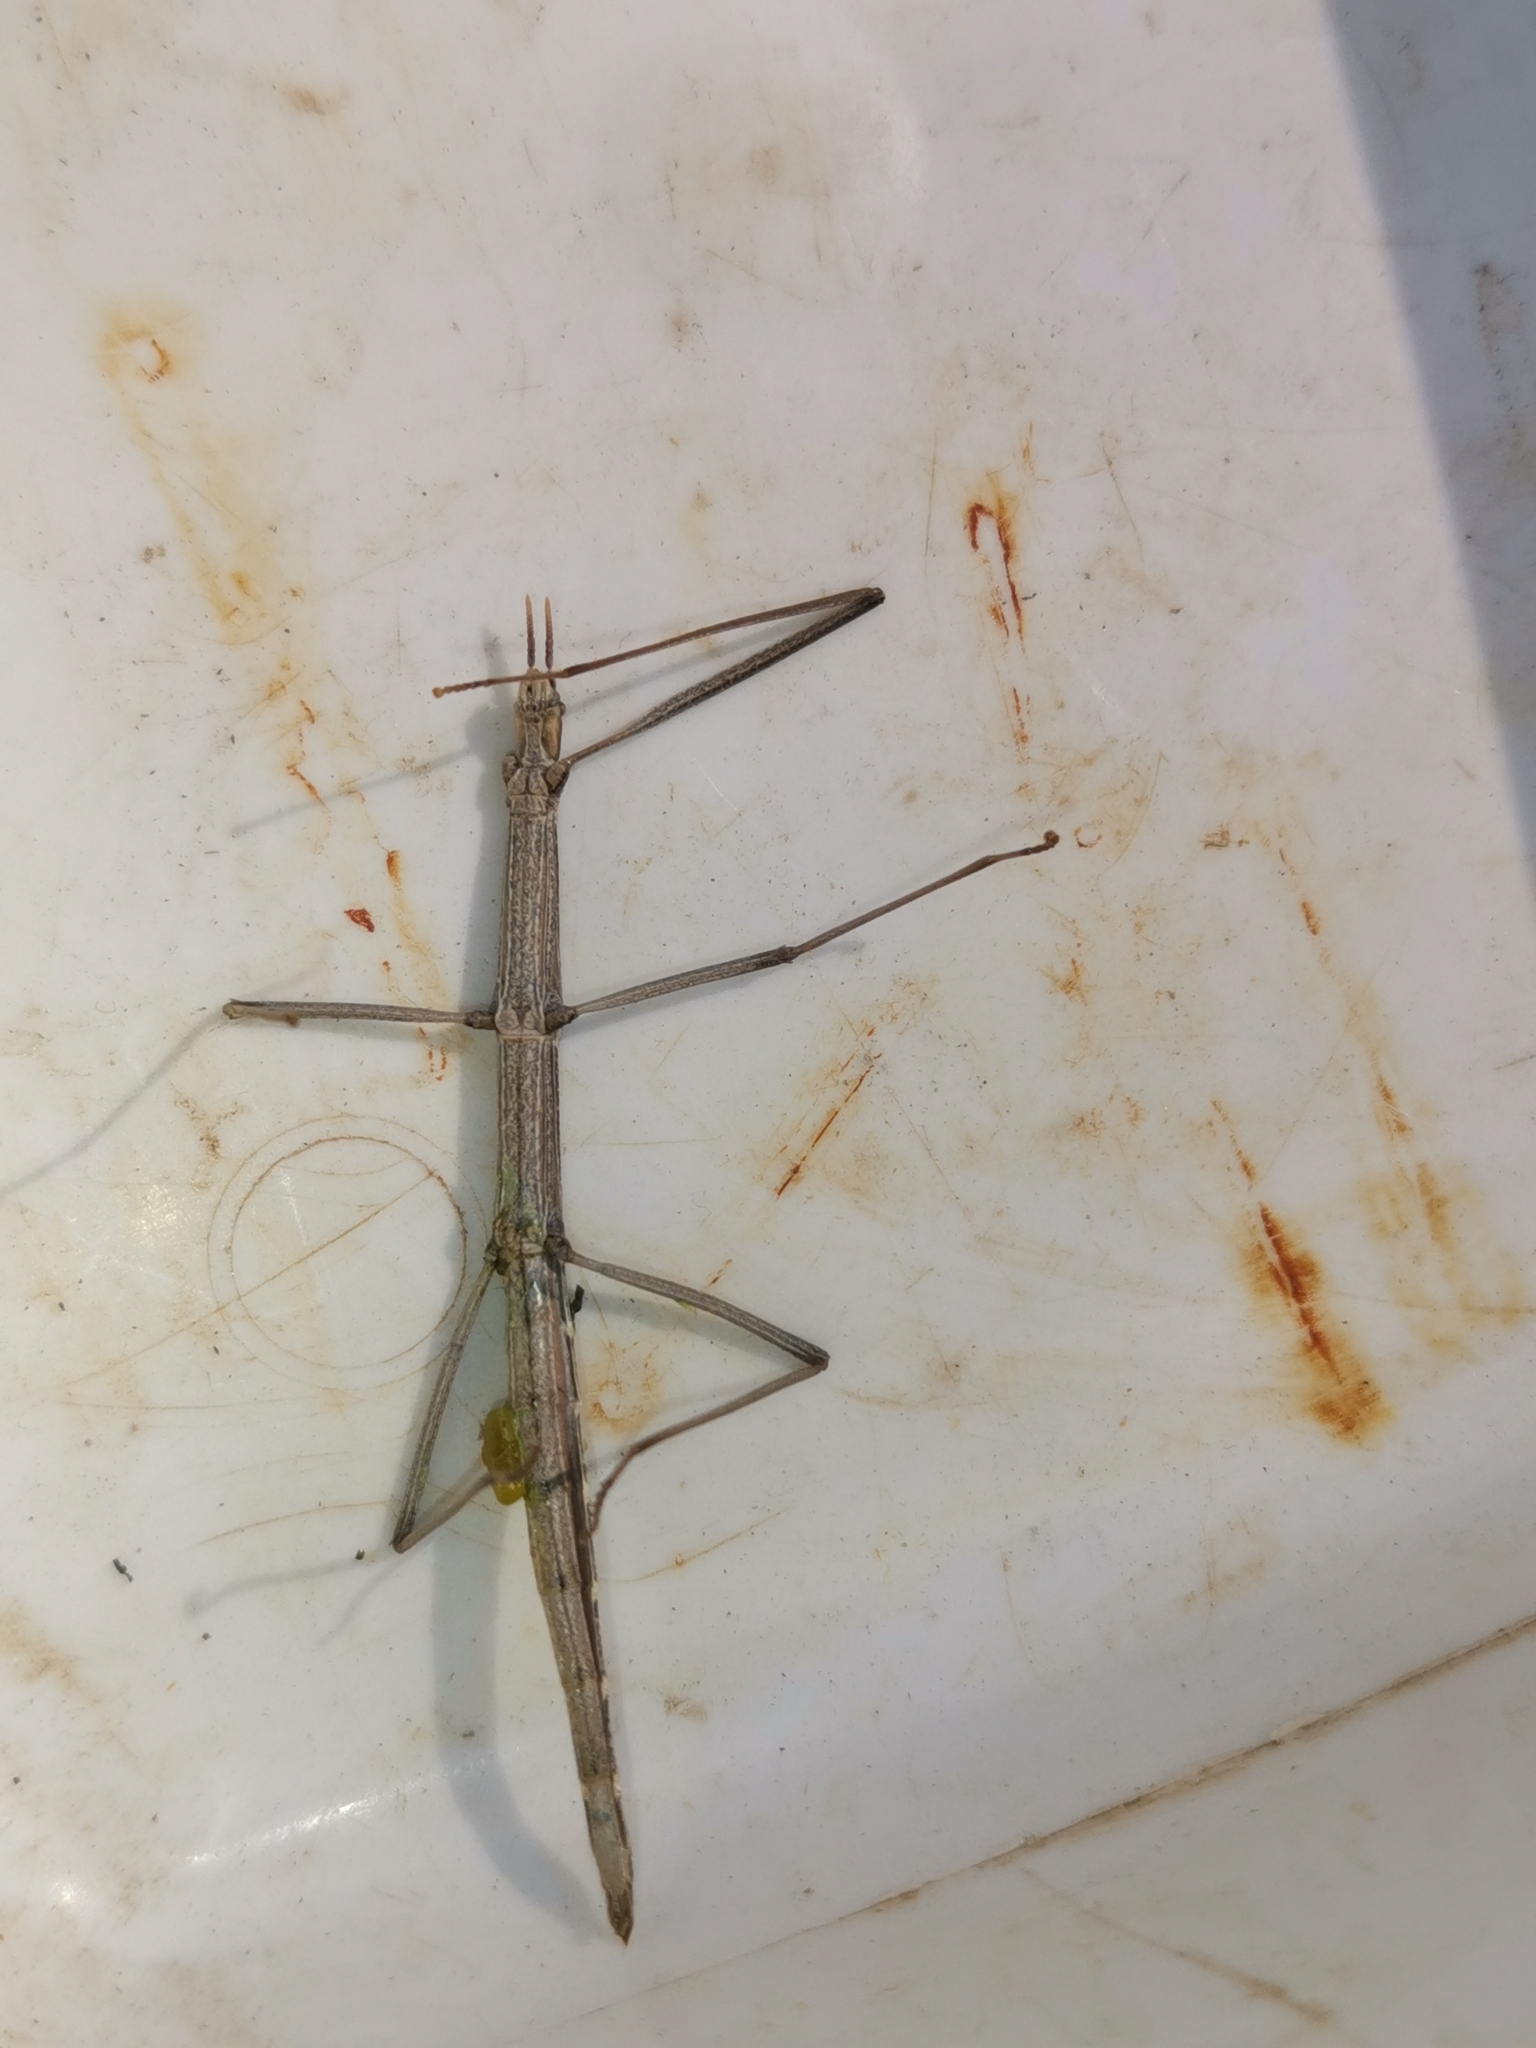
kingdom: Animalia
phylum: Arthropoda
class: Insecta
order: Phasmida
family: Bacillidae
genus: Clonopsis
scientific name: Clonopsis gallica
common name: French stick insect
